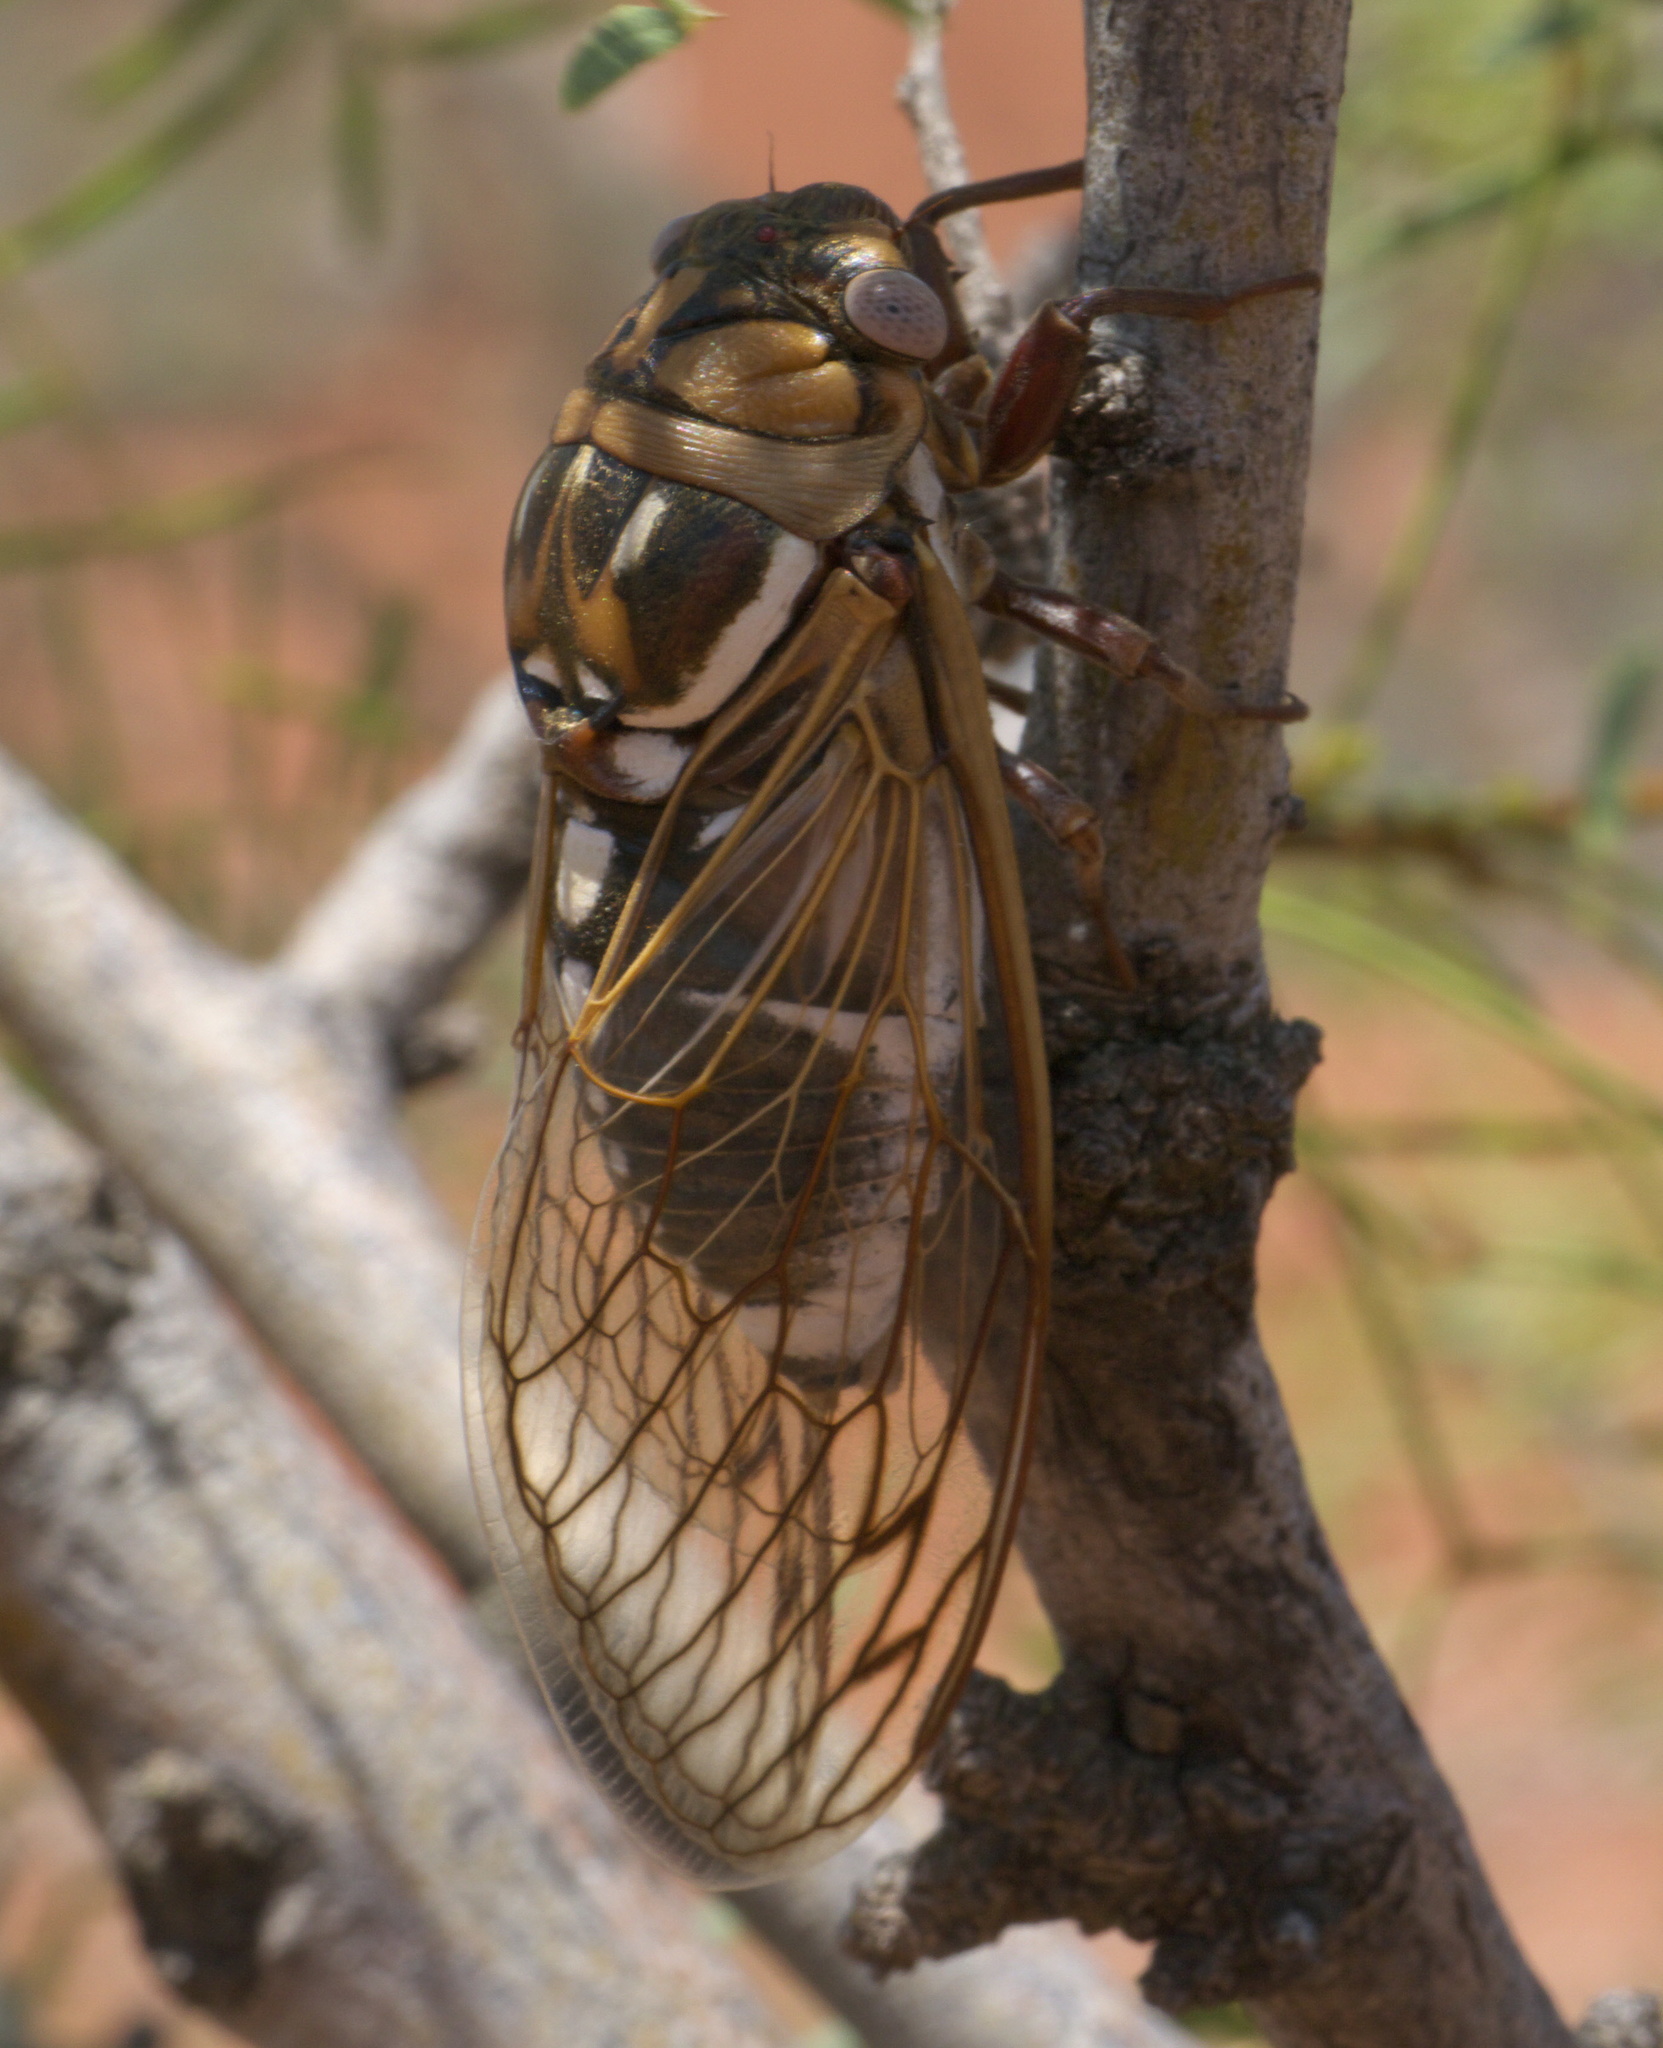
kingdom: Animalia
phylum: Arthropoda
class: Insecta
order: Hemiptera
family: Cicadidae
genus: Megatibicen
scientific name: Megatibicen dorsatus
